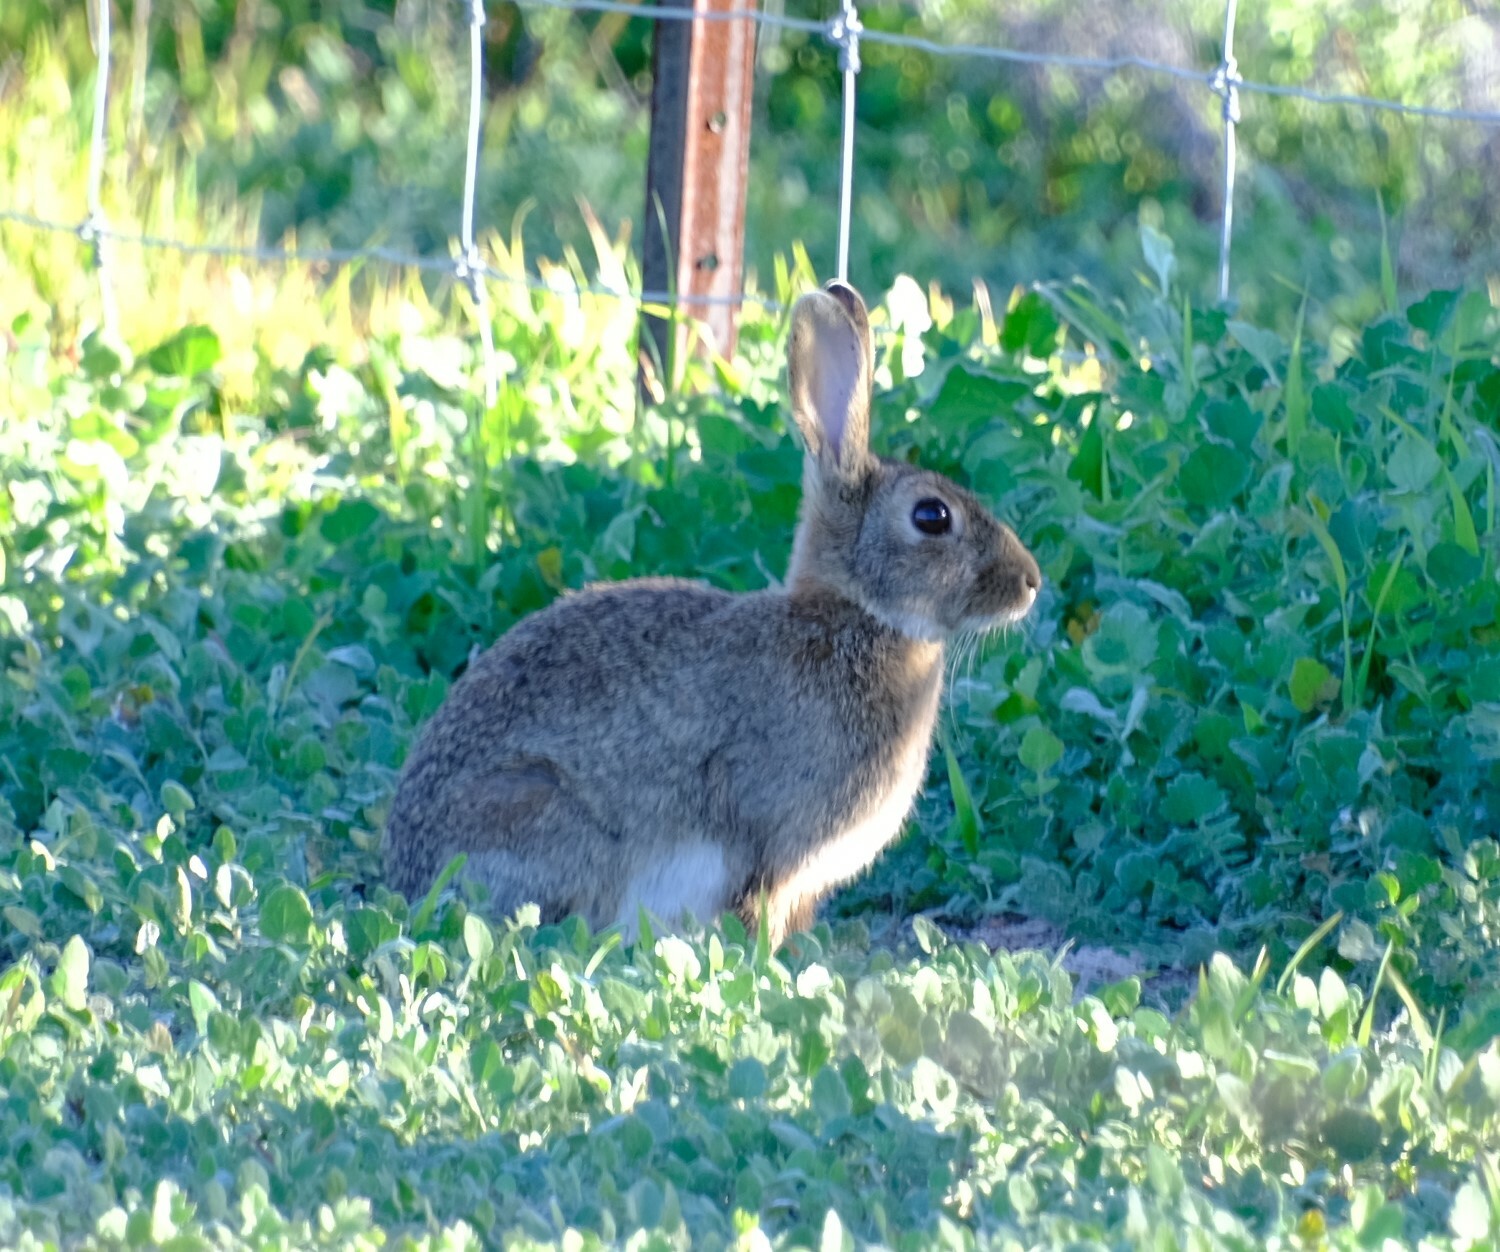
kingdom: Animalia
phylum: Chordata
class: Mammalia
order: Lagomorpha
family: Leporidae
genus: Oryctolagus
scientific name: Oryctolagus cuniculus
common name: European rabbit
